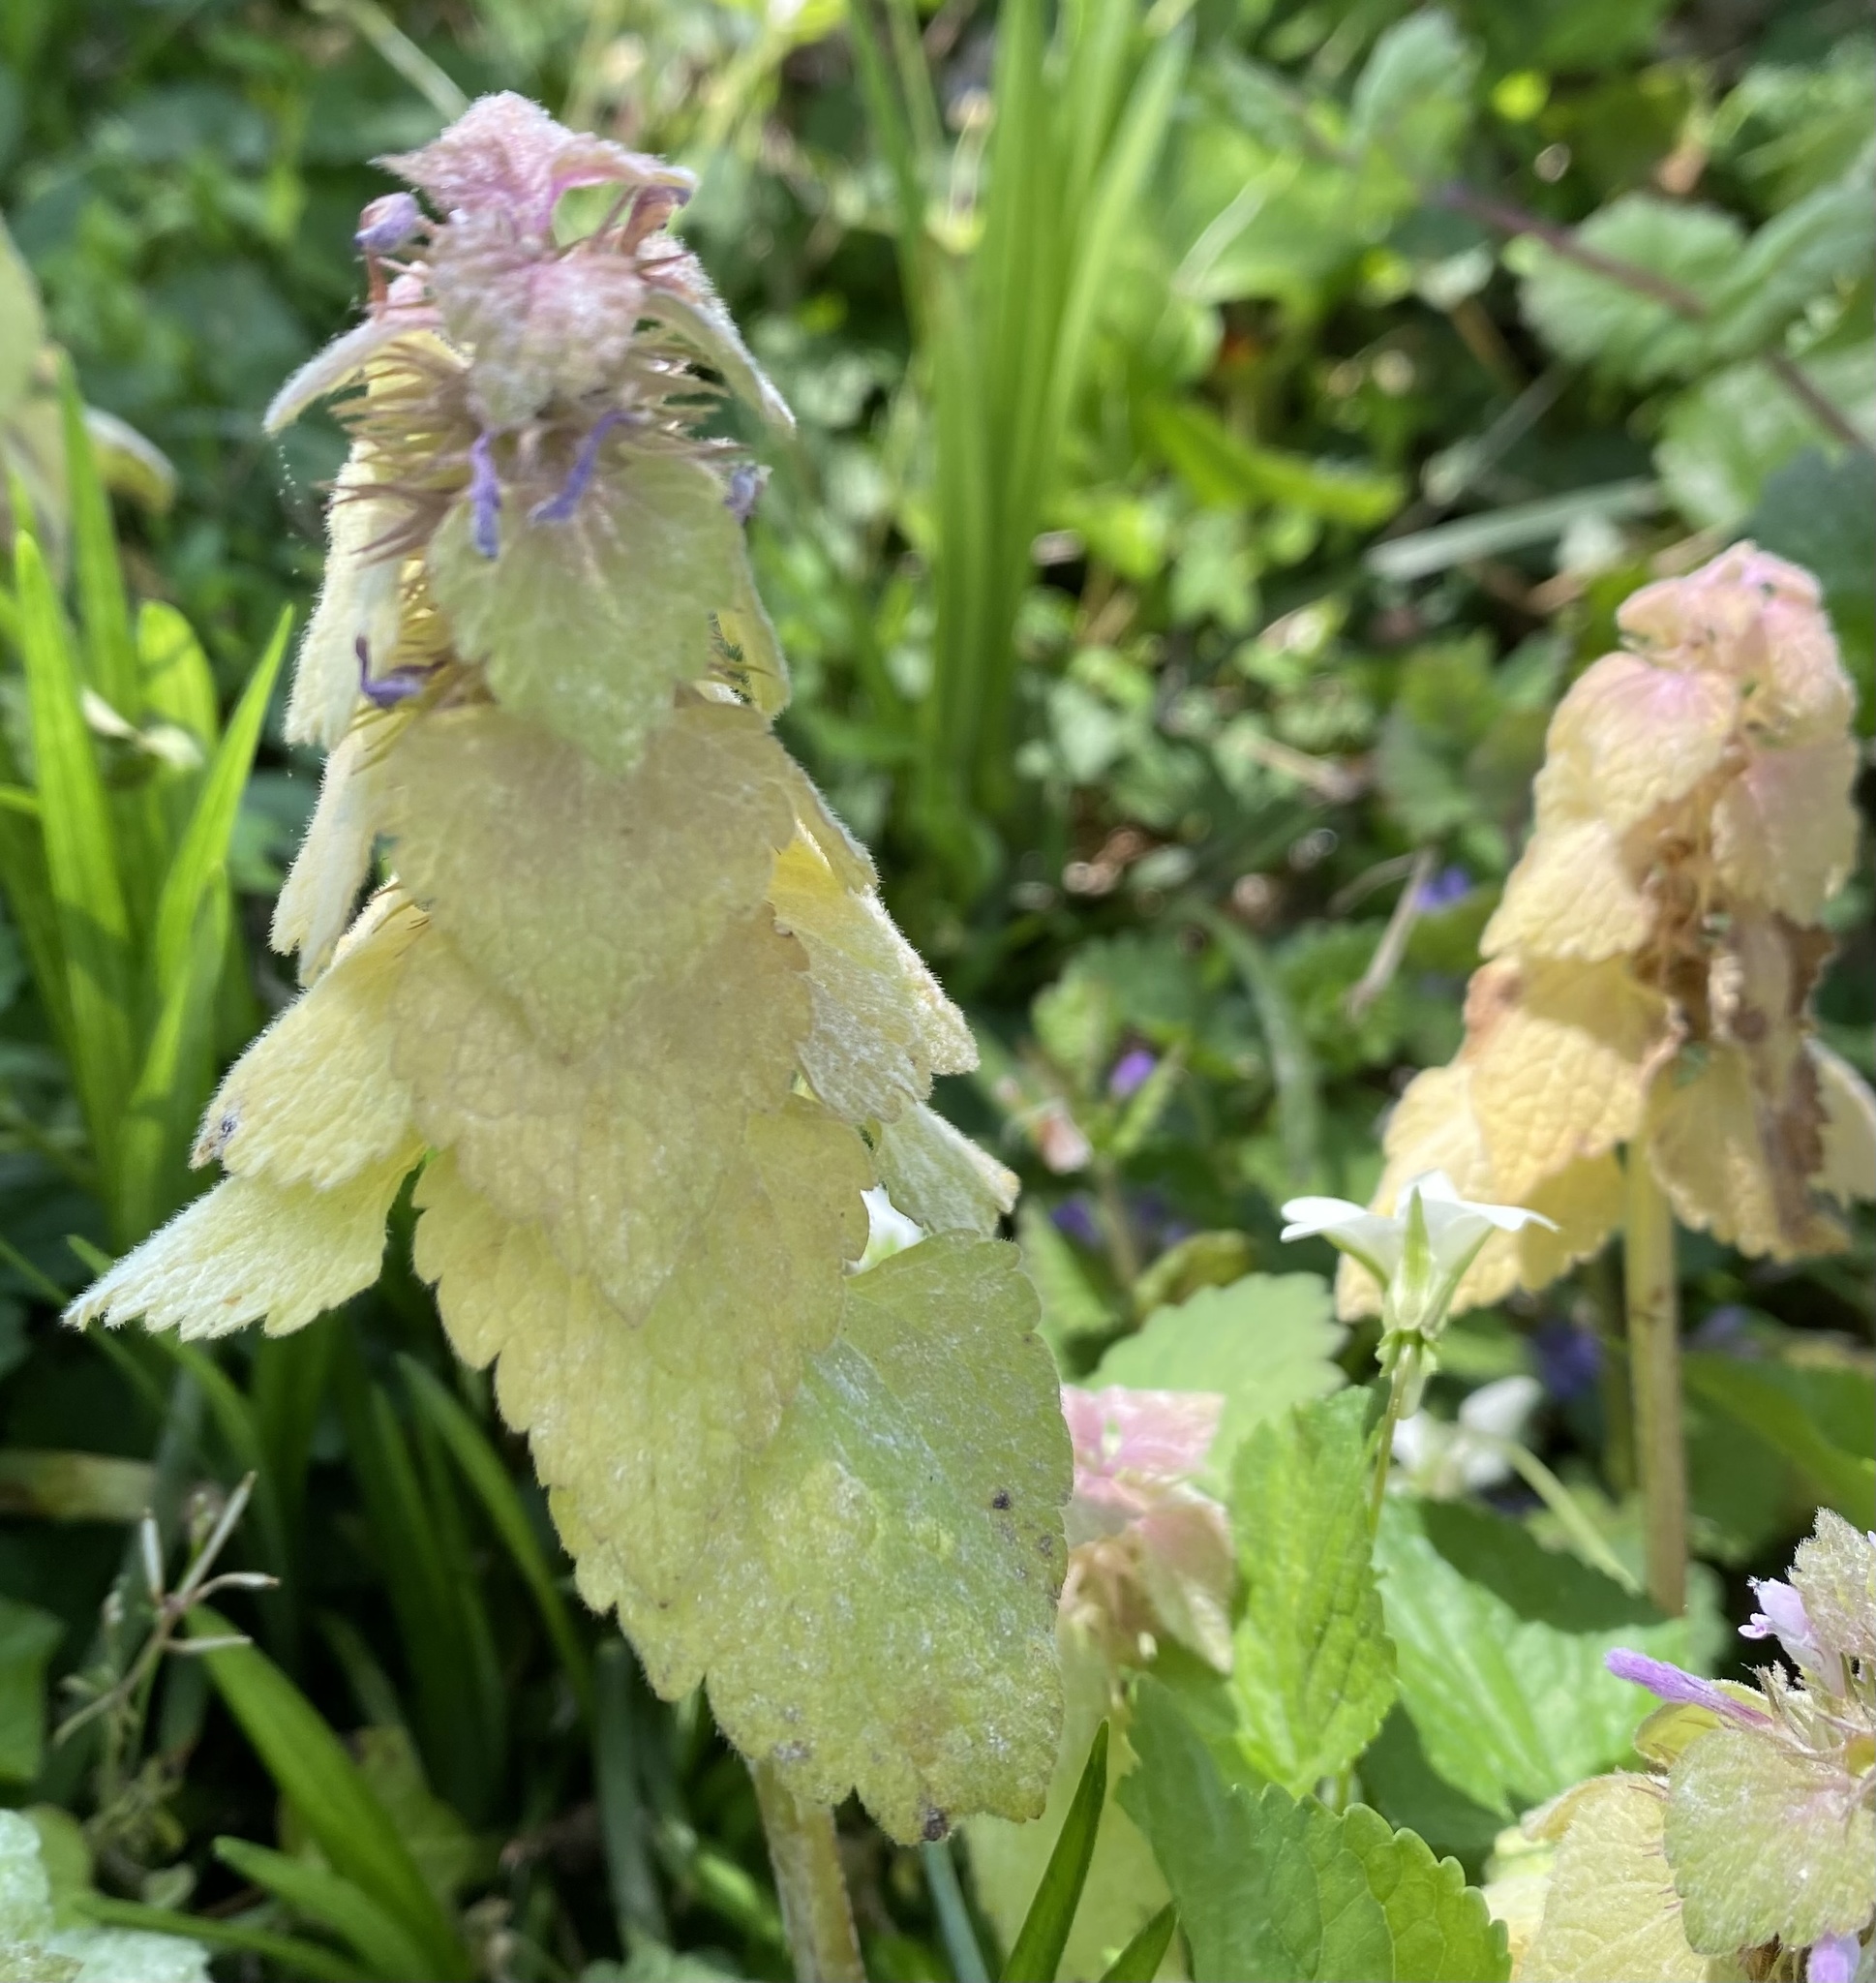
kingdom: Plantae
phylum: Tracheophyta
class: Magnoliopsida
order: Lamiales
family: Lamiaceae
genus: Lamium
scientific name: Lamium purpureum
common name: Red dead-nettle
